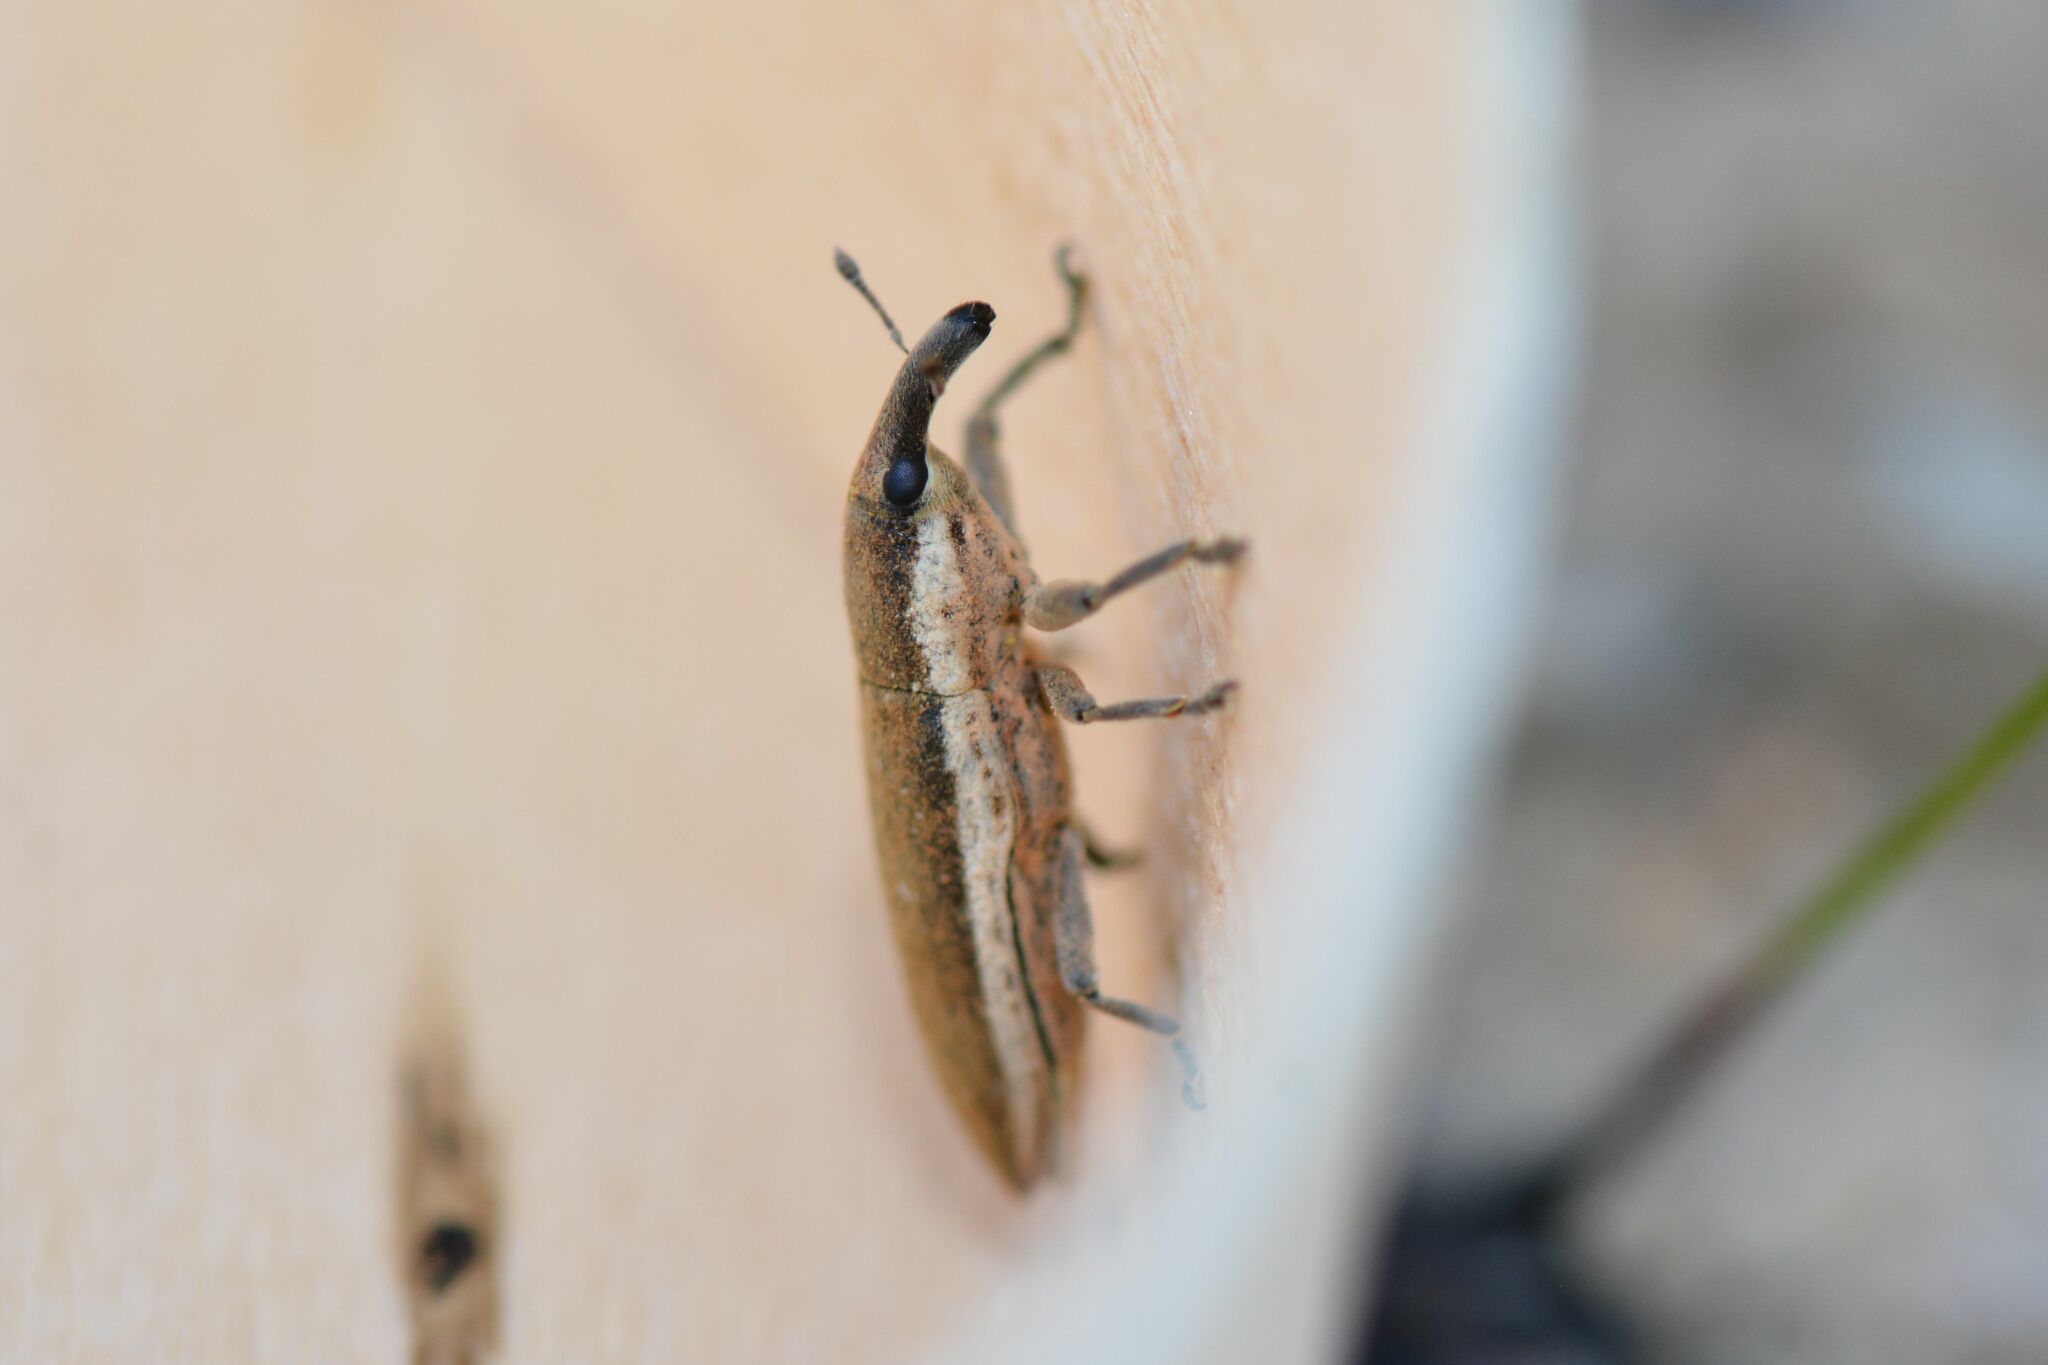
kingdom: Animalia
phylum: Arthropoda
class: Insecta
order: Coleoptera
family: Curculionidae
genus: Lixus
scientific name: Lixus juncii
